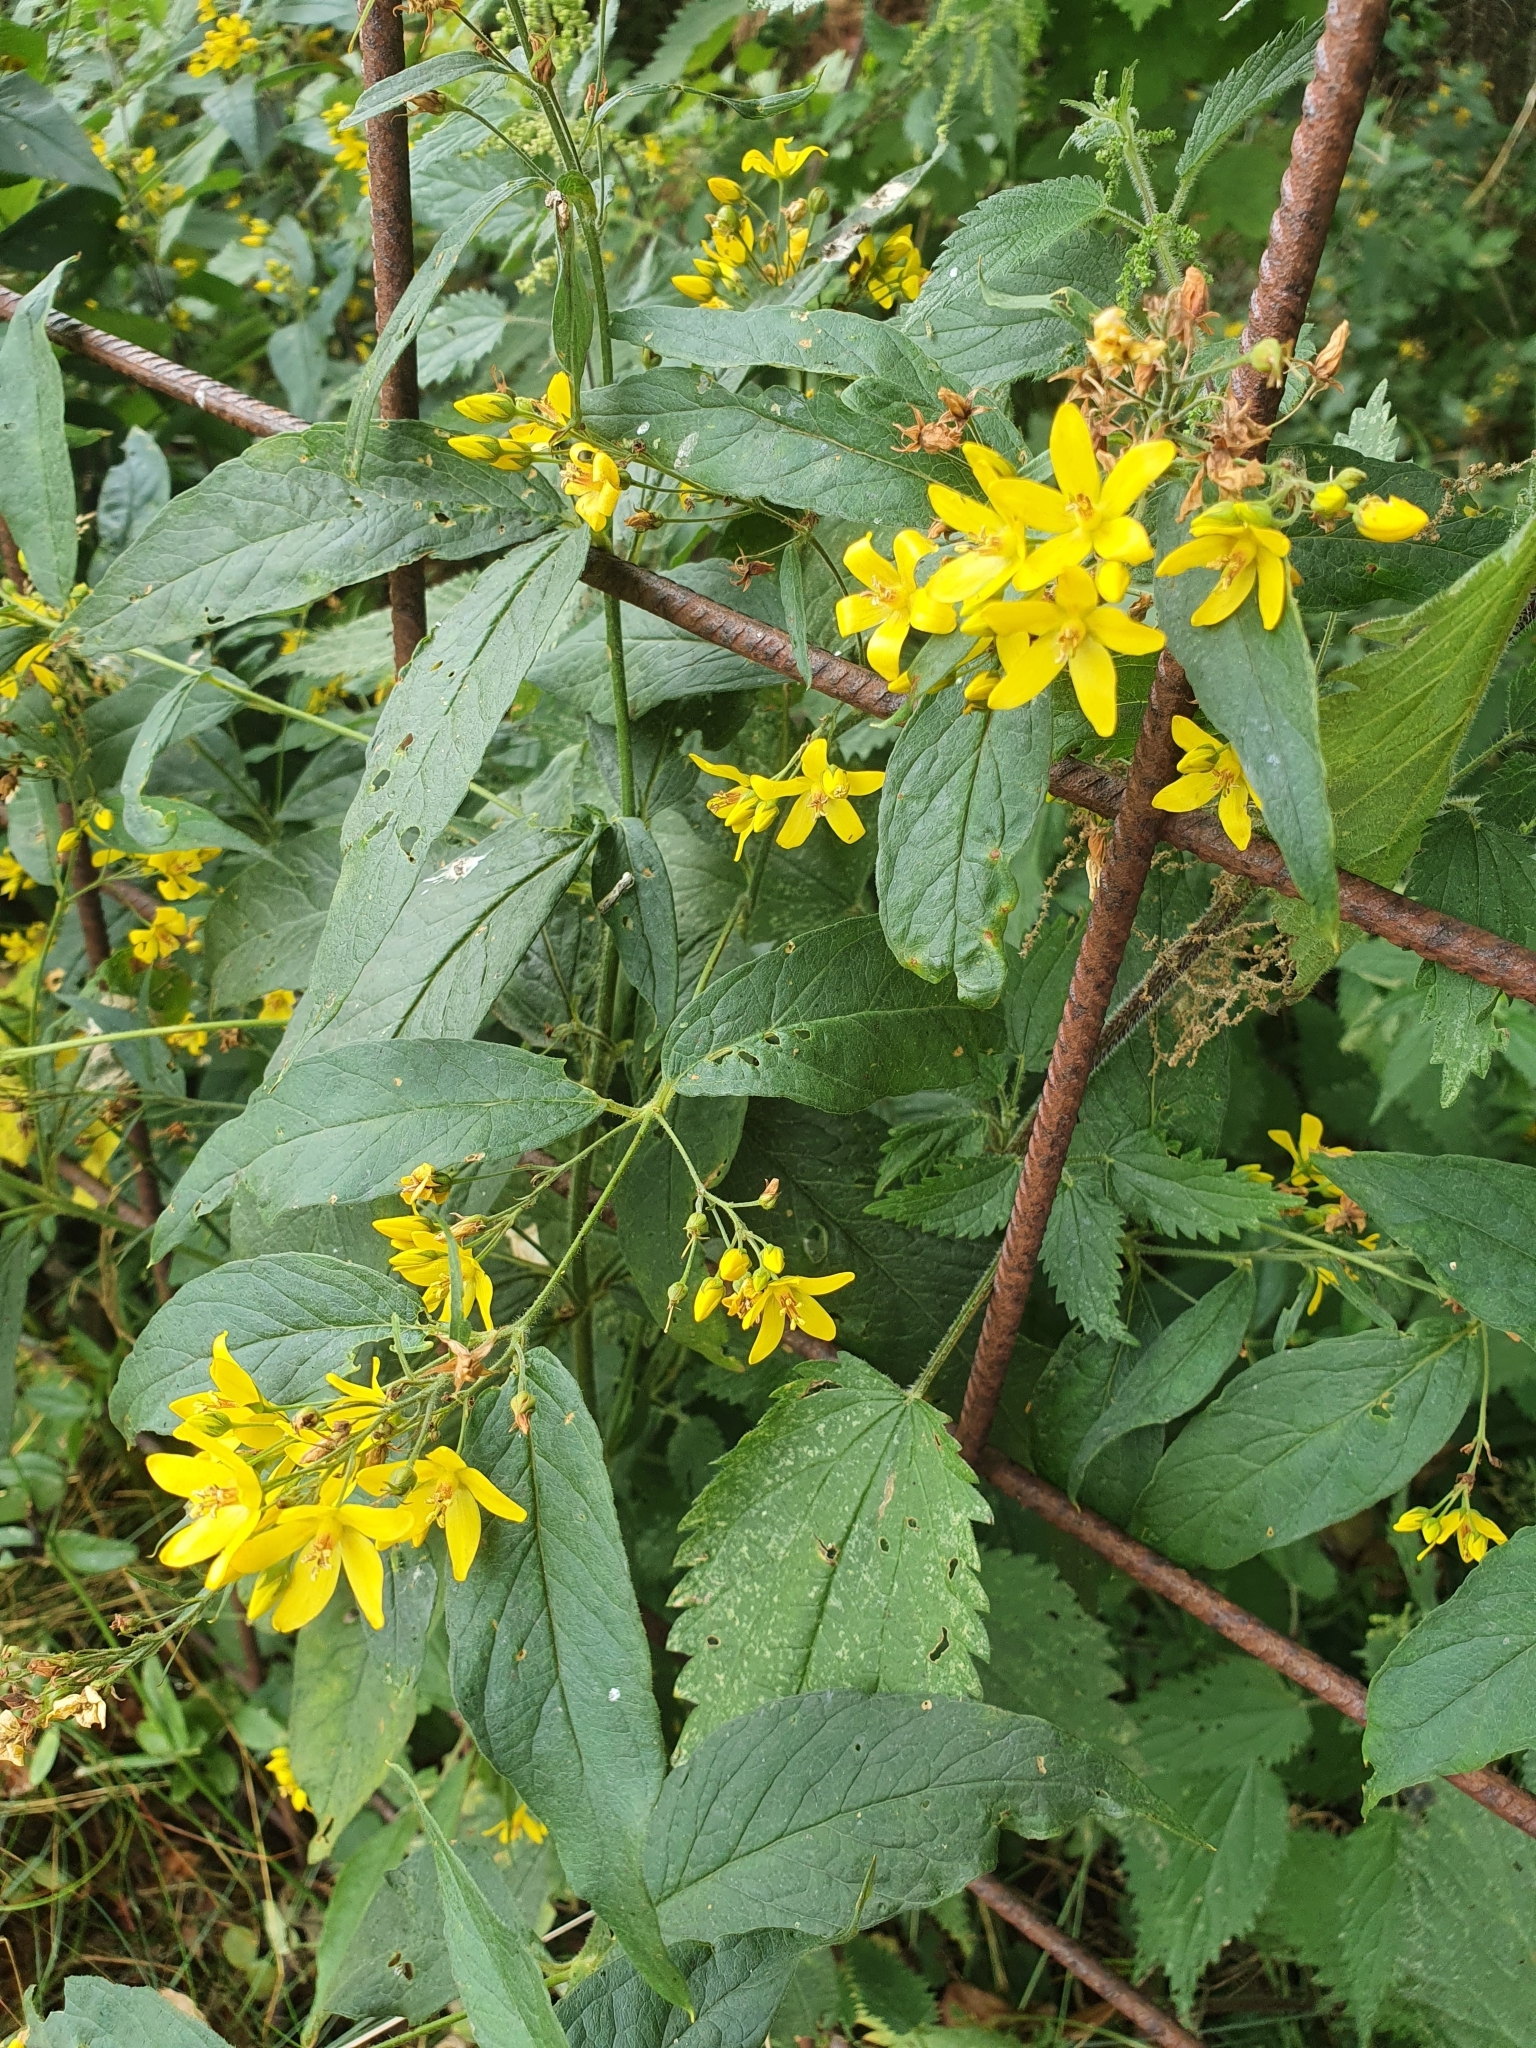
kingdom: Plantae
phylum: Tracheophyta
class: Magnoliopsida
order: Ericales
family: Primulaceae
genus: Lysimachia
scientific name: Lysimachia vulgaris
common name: Yellow loosestrife
